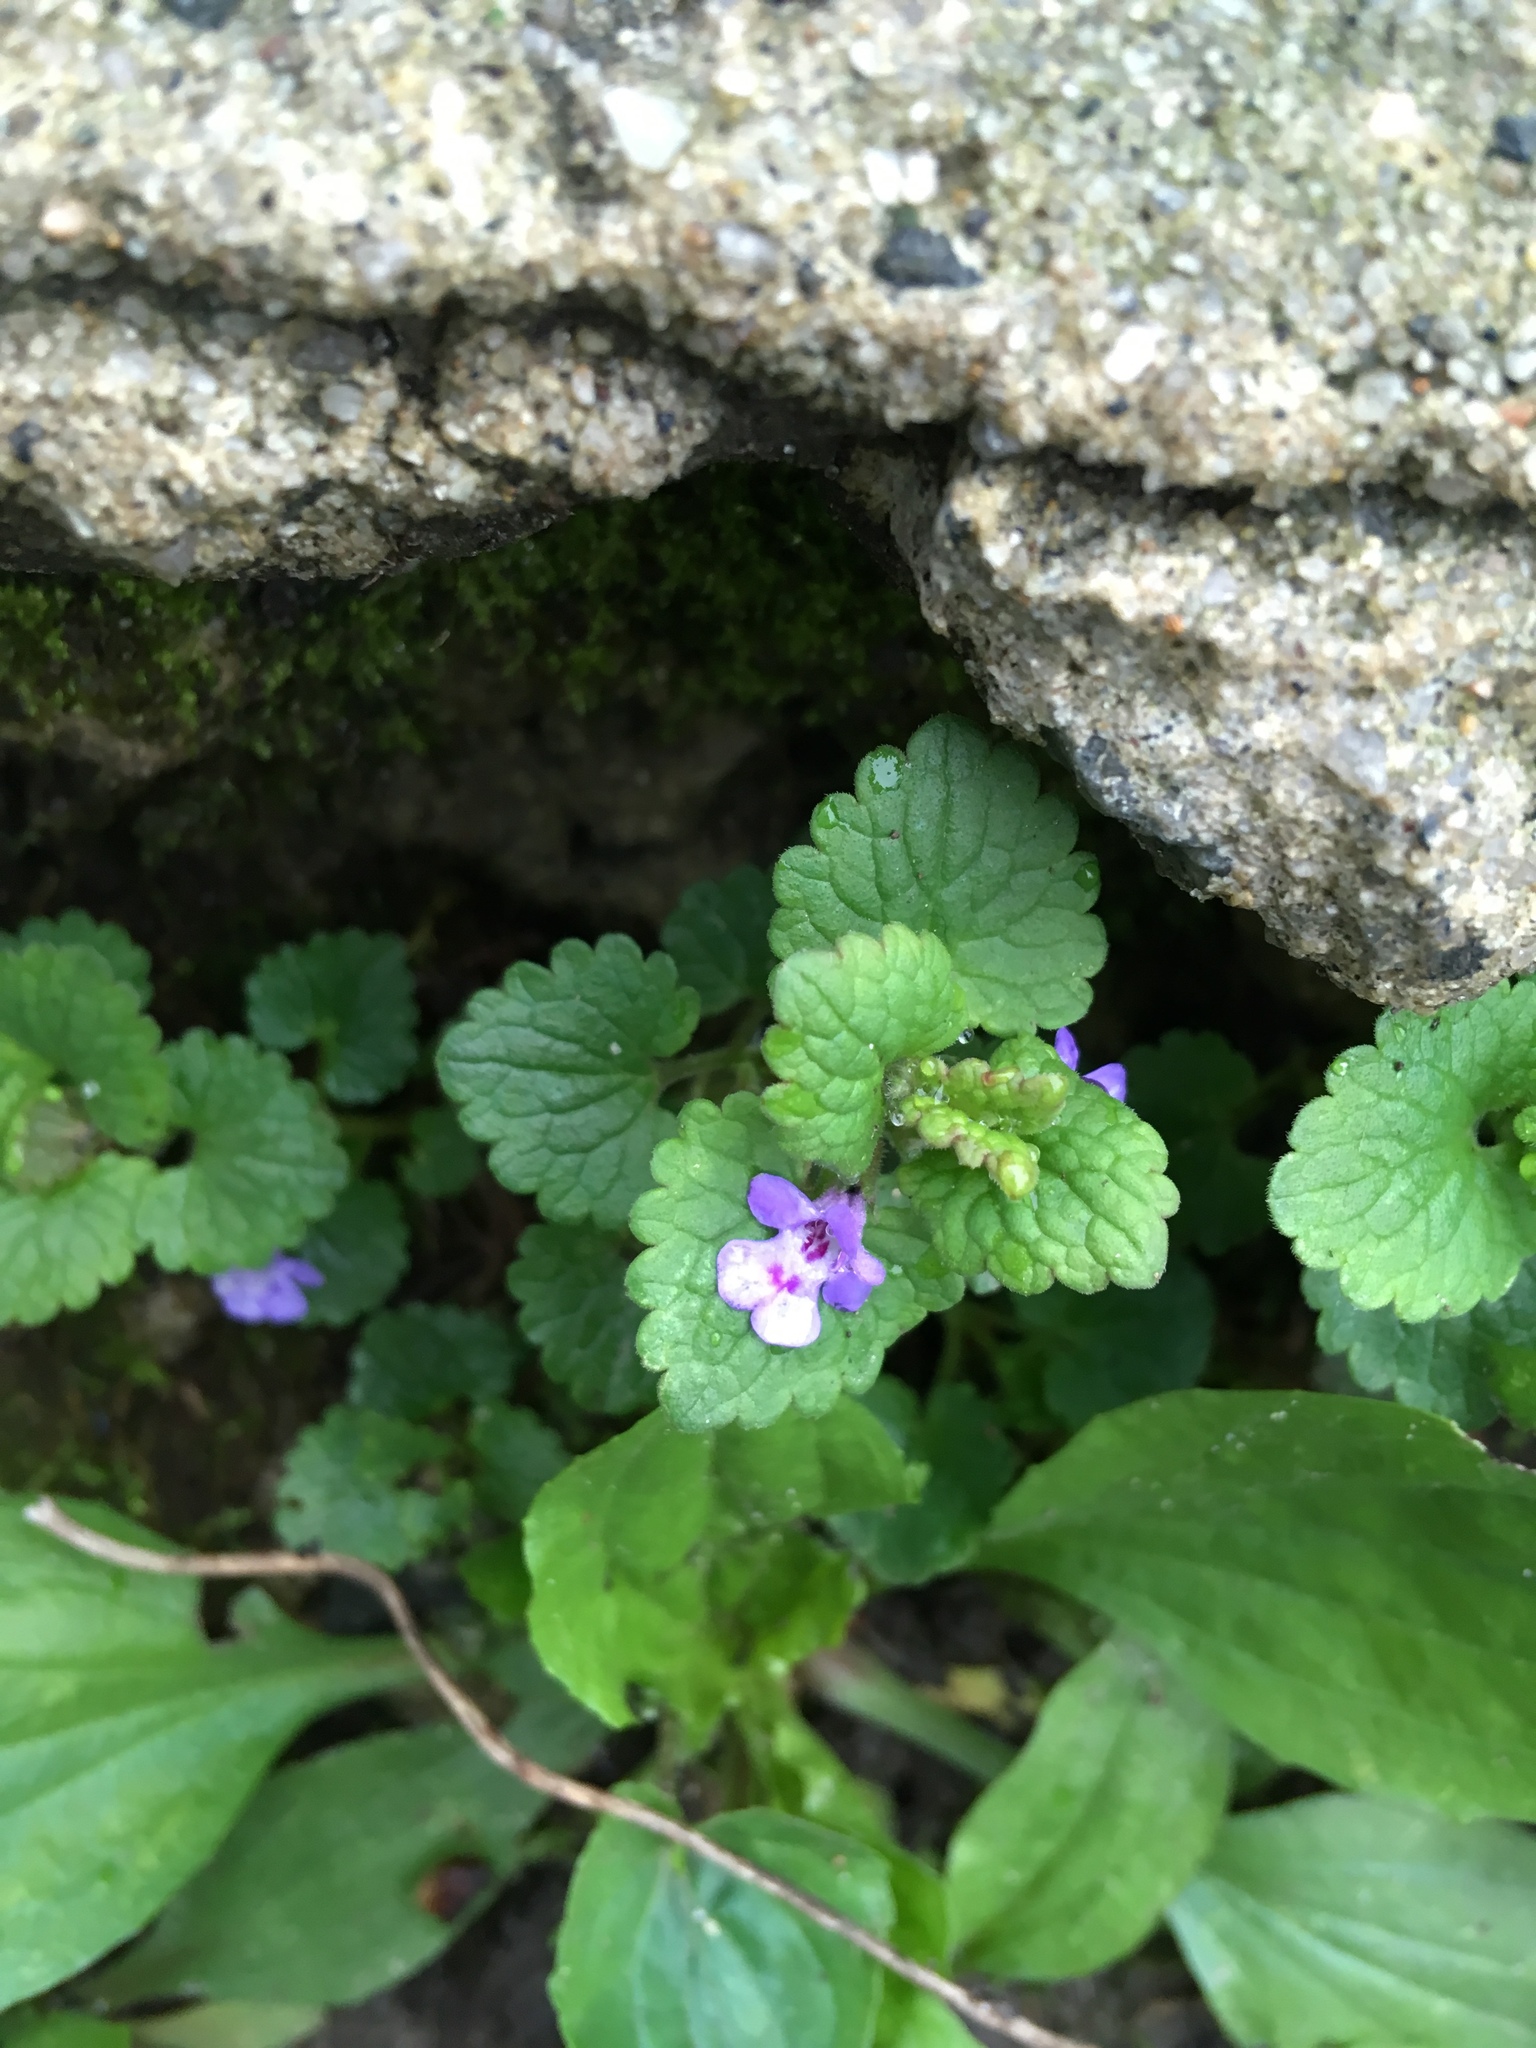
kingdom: Plantae
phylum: Tracheophyta
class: Magnoliopsida
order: Lamiales
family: Lamiaceae
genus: Glechoma
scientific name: Glechoma hederacea
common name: Ground ivy
